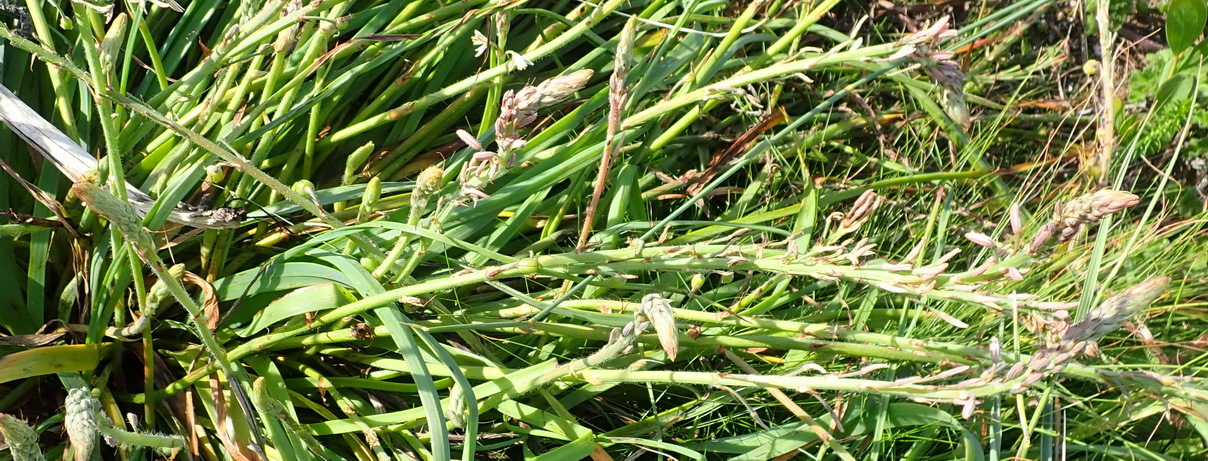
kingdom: Plantae
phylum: Tracheophyta
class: Liliopsida
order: Asparagales
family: Asphodelaceae
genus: Trachyandra
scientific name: Trachyandra ciliata
